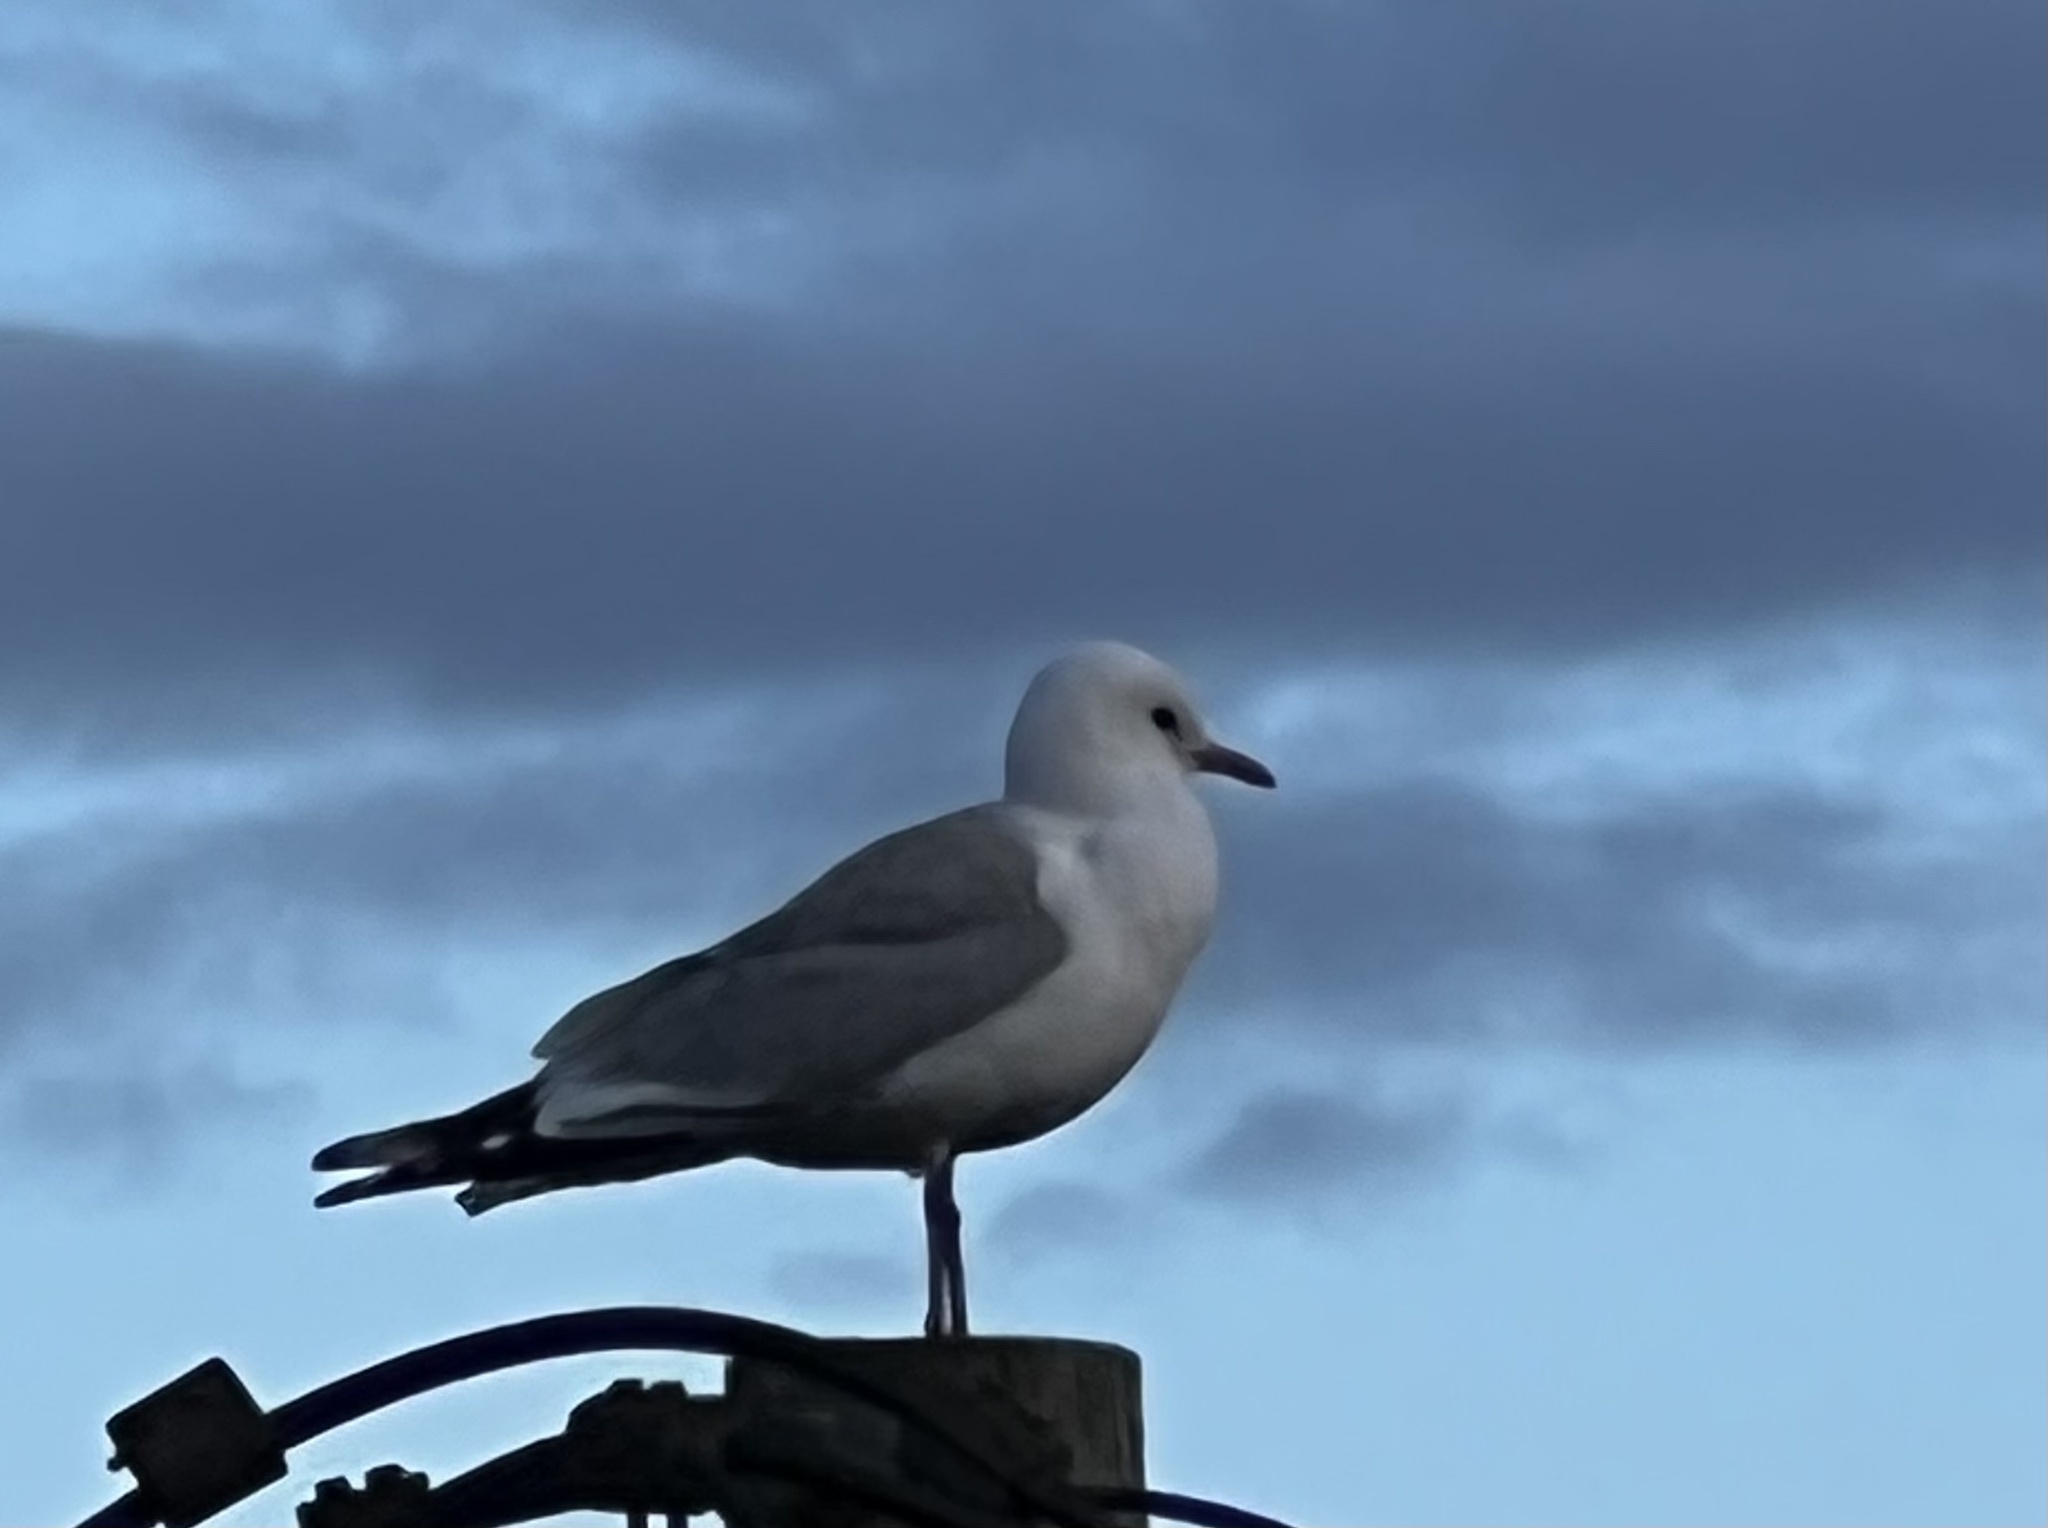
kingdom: Animalia
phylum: Chordata
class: Aves
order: Charadriiformes
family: Laridae
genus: Larus
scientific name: Larus canus
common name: Mew gull
